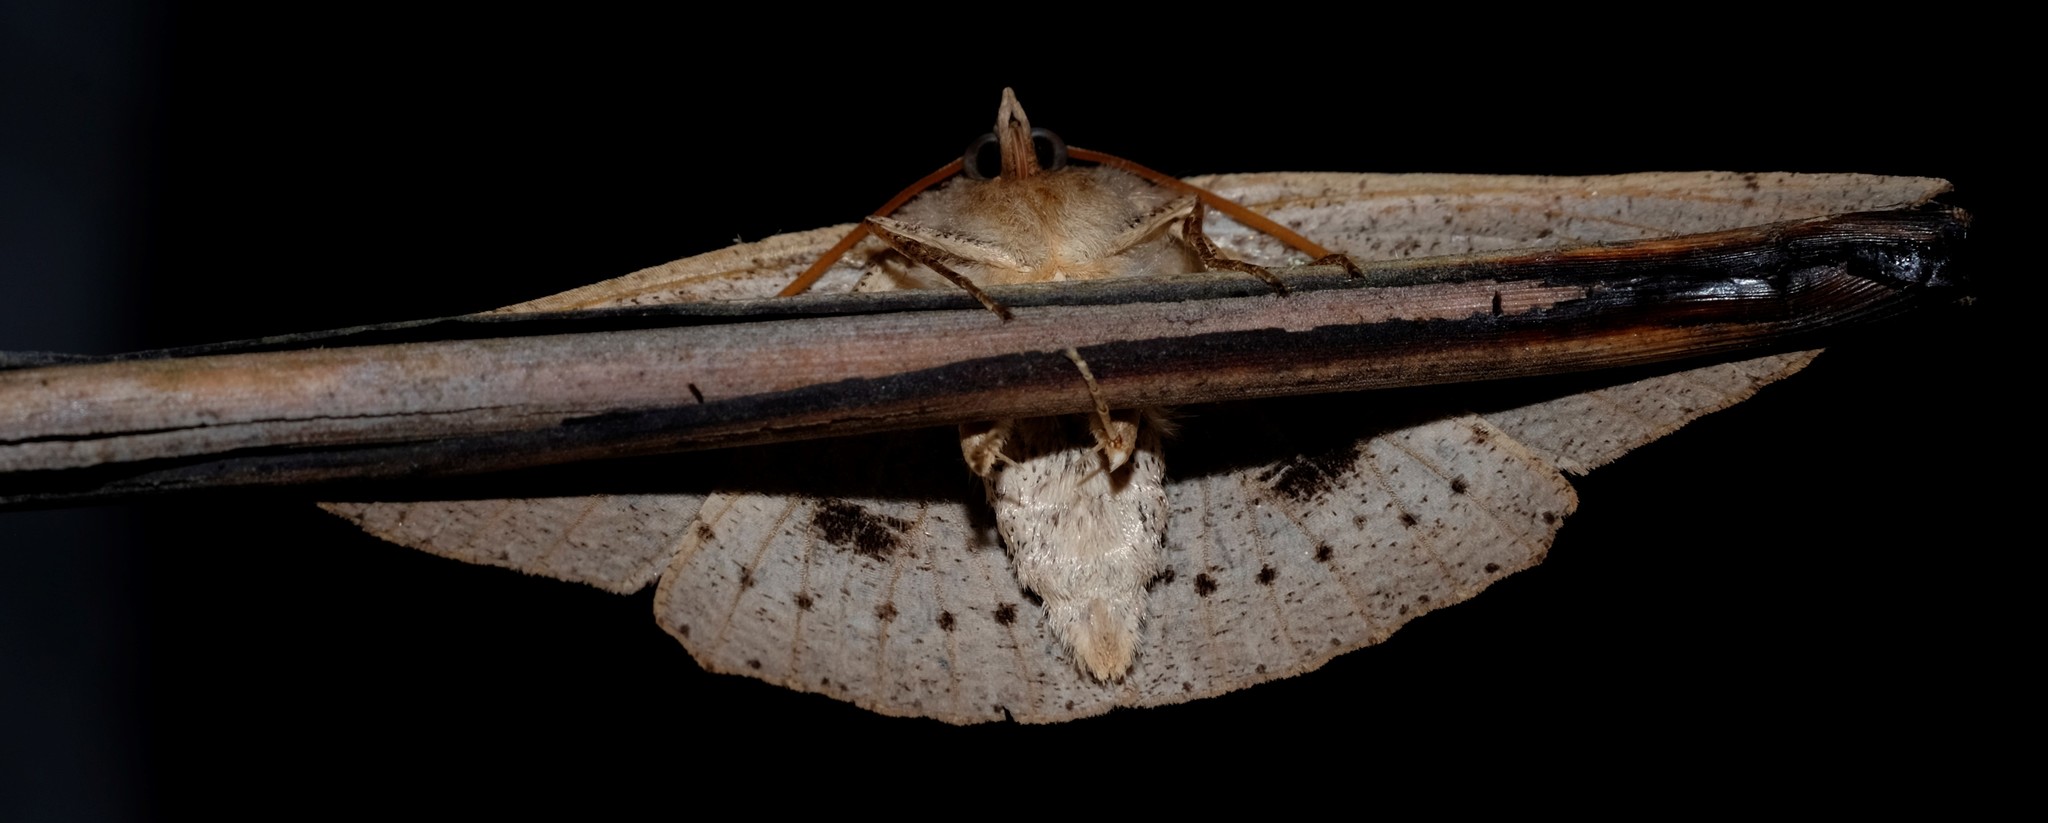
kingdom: Animalia
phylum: Arthropoda
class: Insecta
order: Lepidoptera
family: Geometridae
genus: Idiodes
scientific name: Idiodes siculoides
